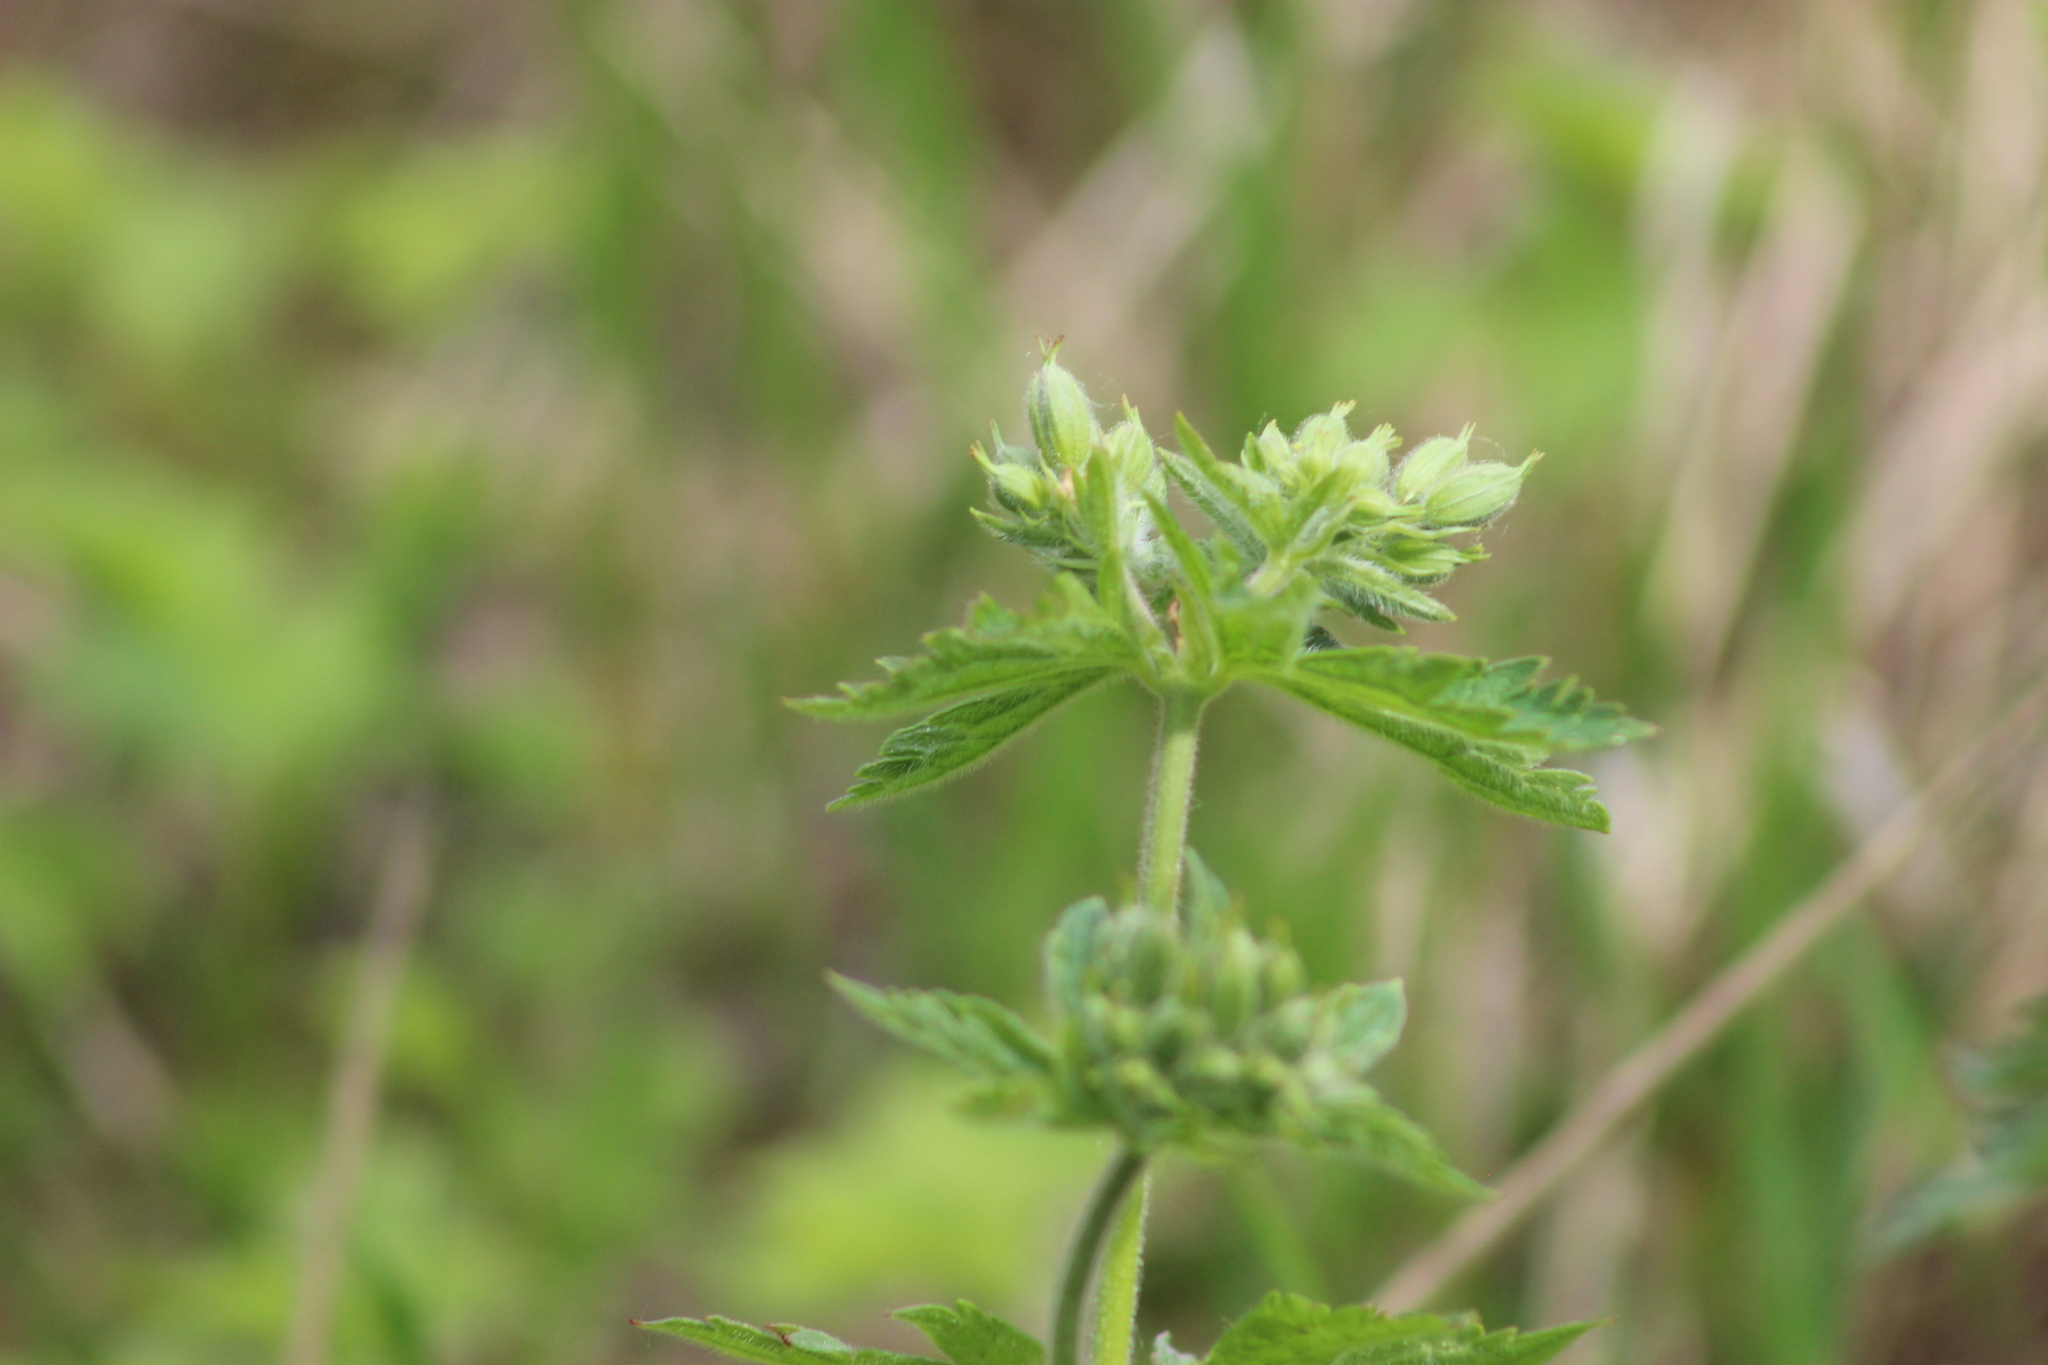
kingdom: Plantae
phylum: Tracheophyta
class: Magnoliopsida
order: Geraniales
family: Geraniaceae
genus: Geranium
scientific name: Geranium sylvaticum
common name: Wood crane's-bill
